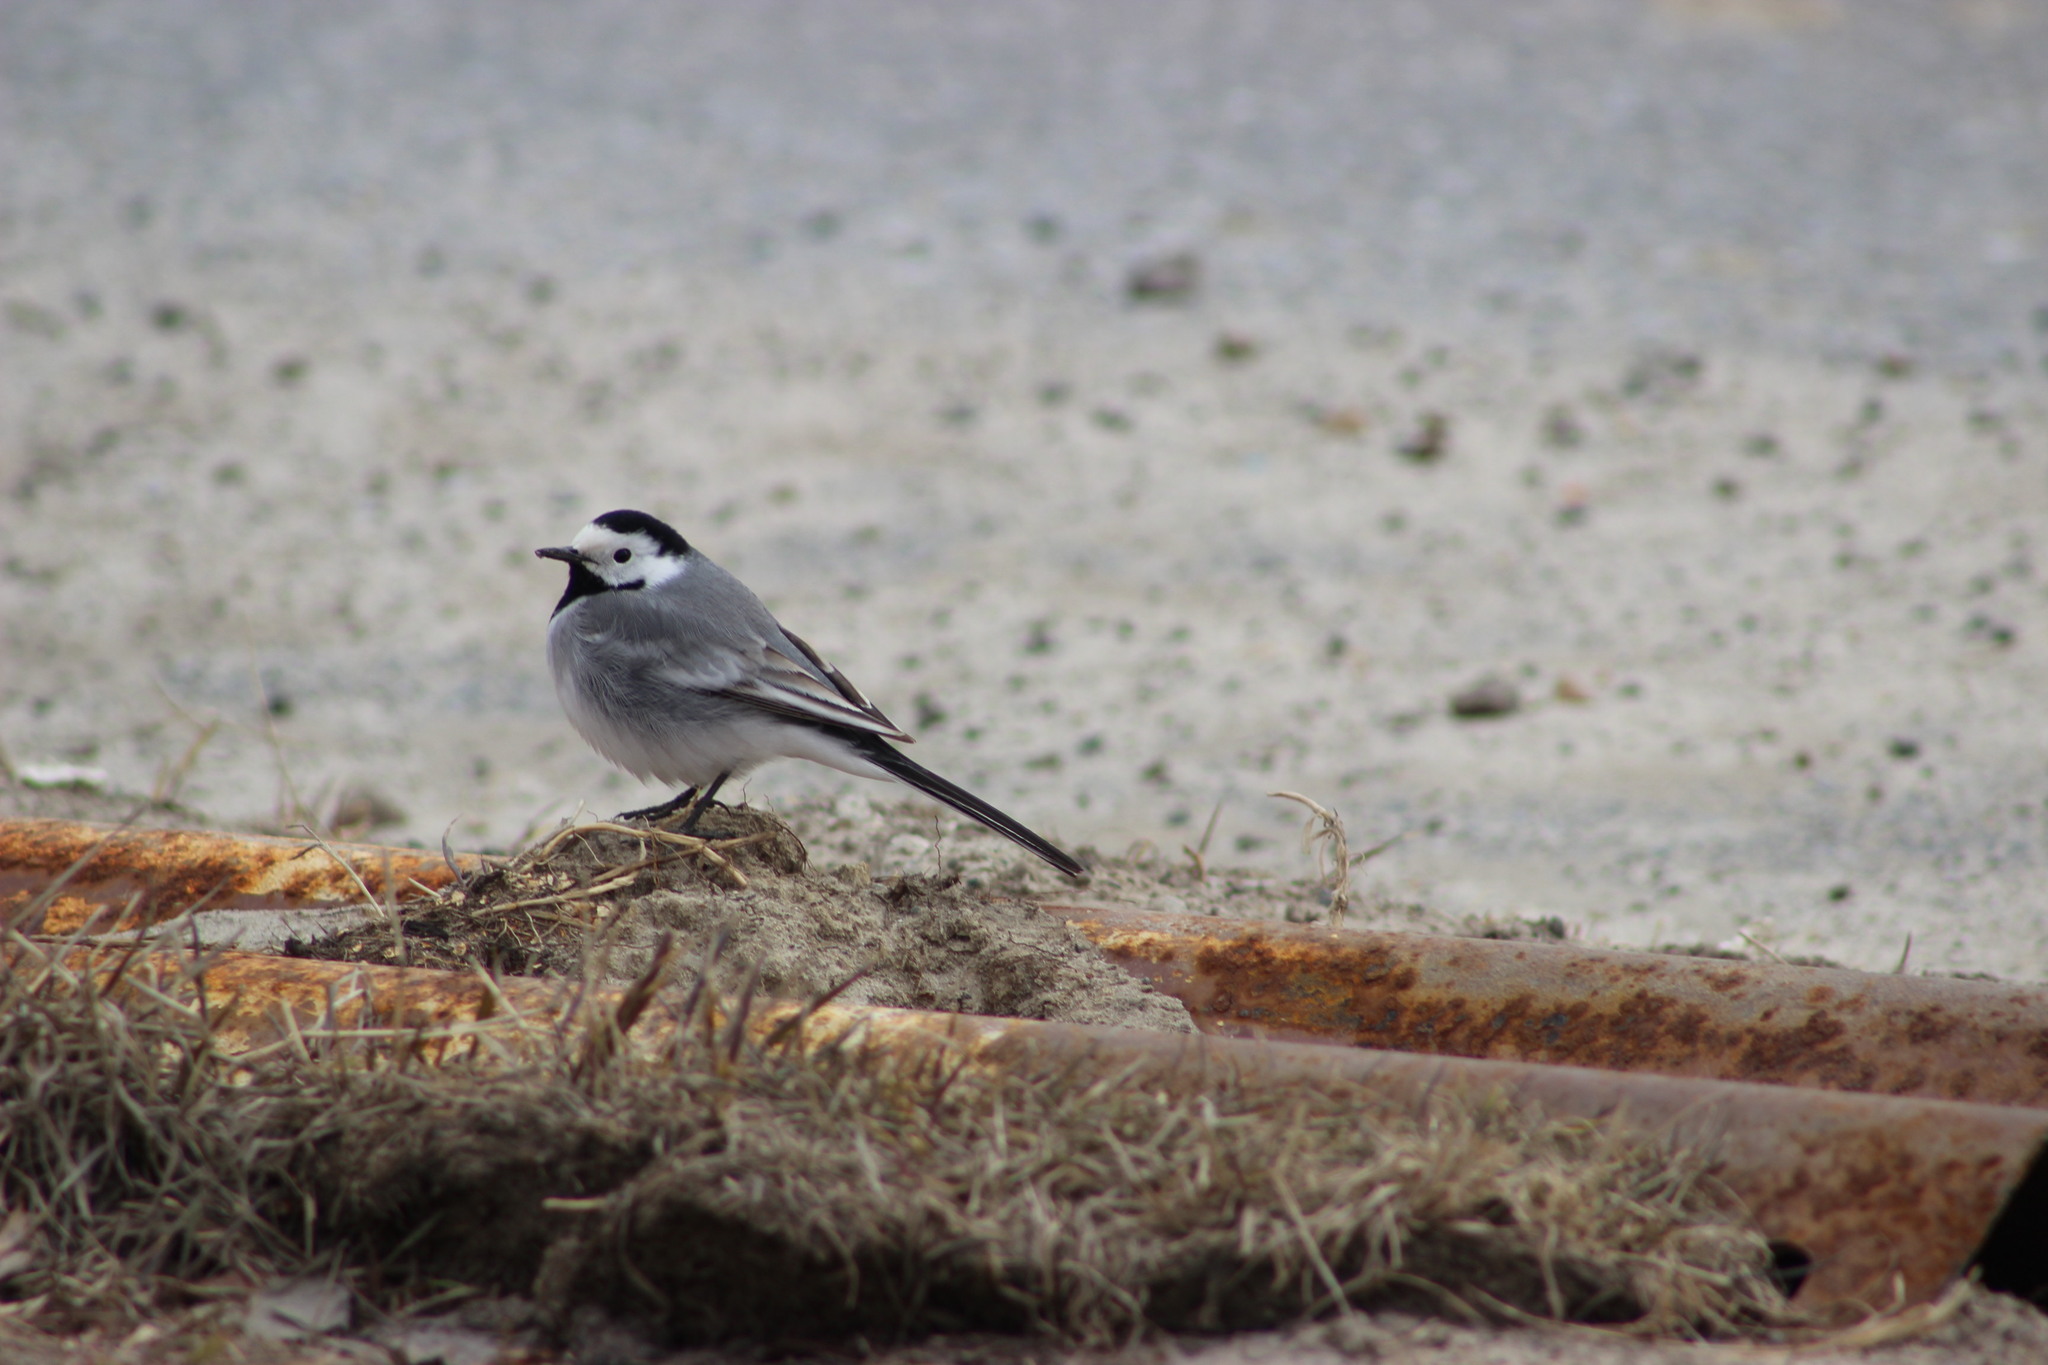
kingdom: Animalia
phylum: Chordata
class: Aves
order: Passeriformes
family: Motacillidae
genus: Motacilla
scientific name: Motacilla alba
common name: White wagtail
